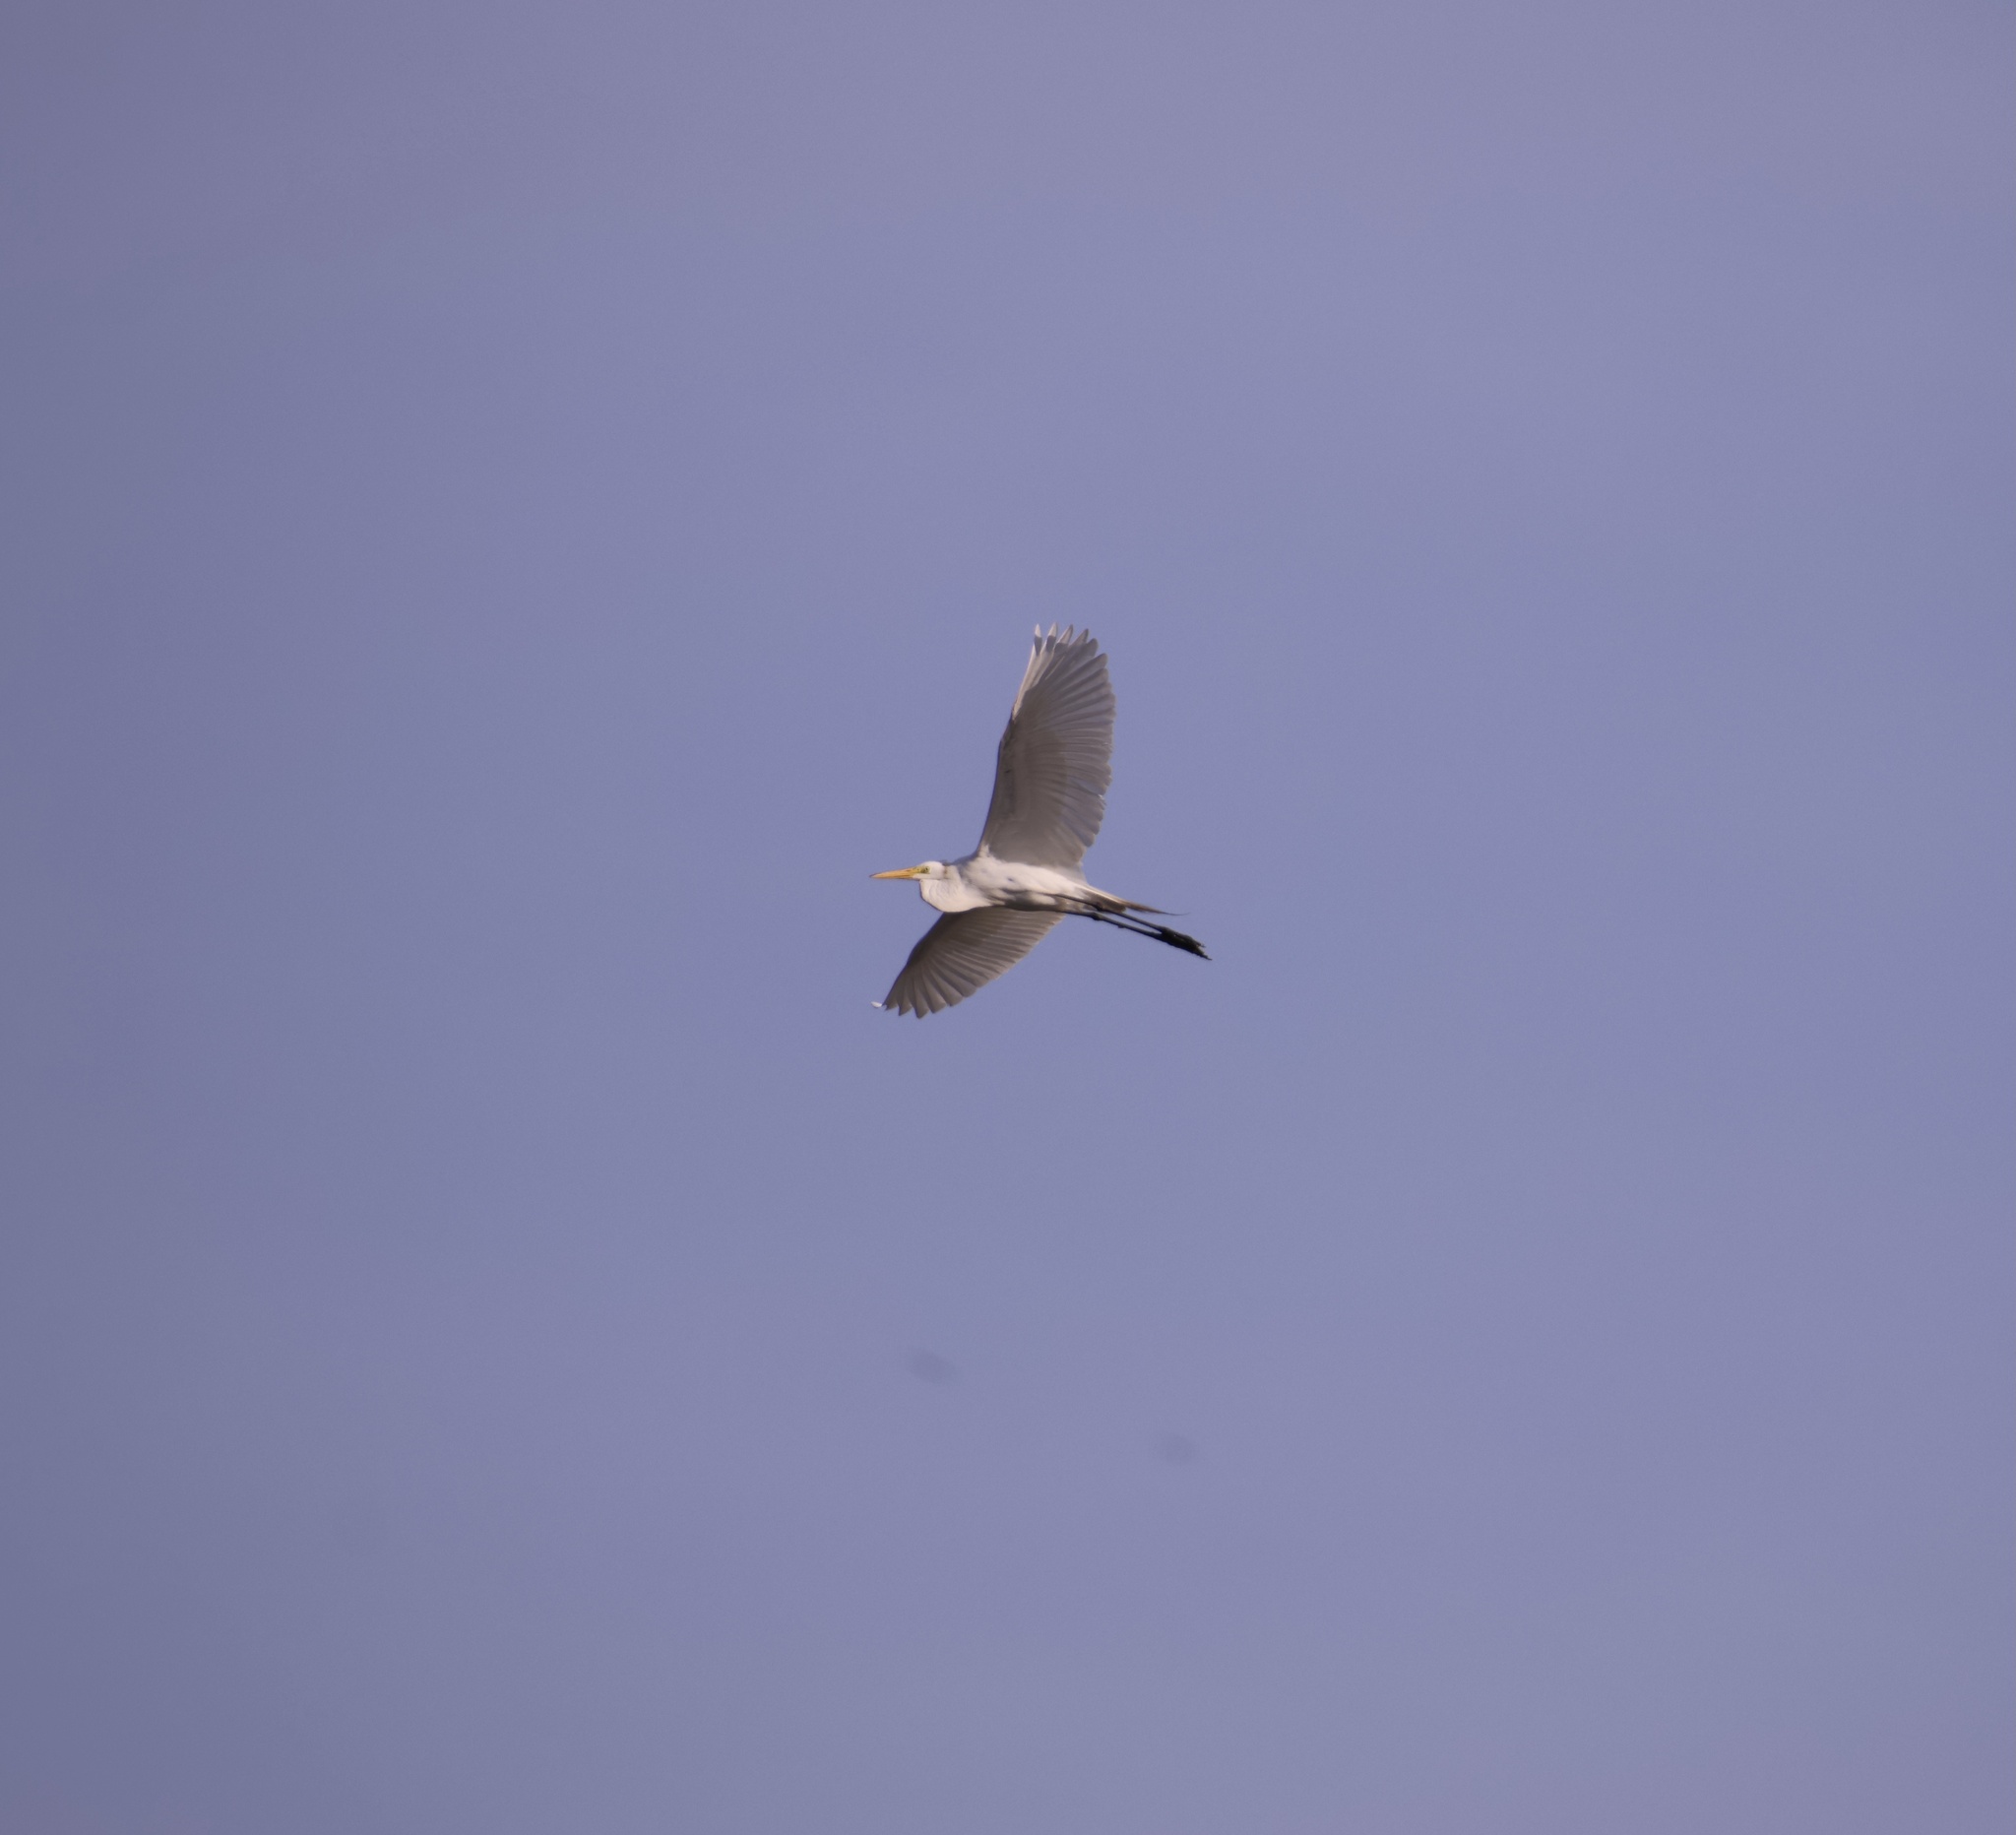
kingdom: Animalia
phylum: Chordata
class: Aves
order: Pelecaniformes
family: Ardeidae
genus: Ardea
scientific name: Ardea alba
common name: Great egret
